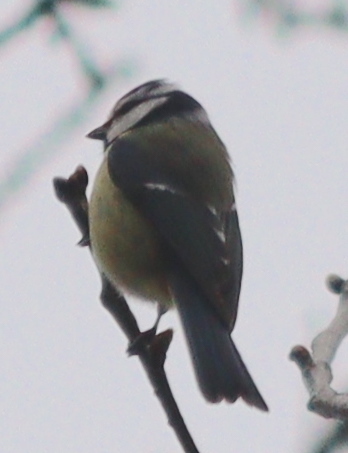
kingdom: Animalia
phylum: Chordata
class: Aves
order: Passeriformes
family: Paridae
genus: Cyanistes
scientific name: Cyanistes caeruleus
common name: Eurasian blue tit
